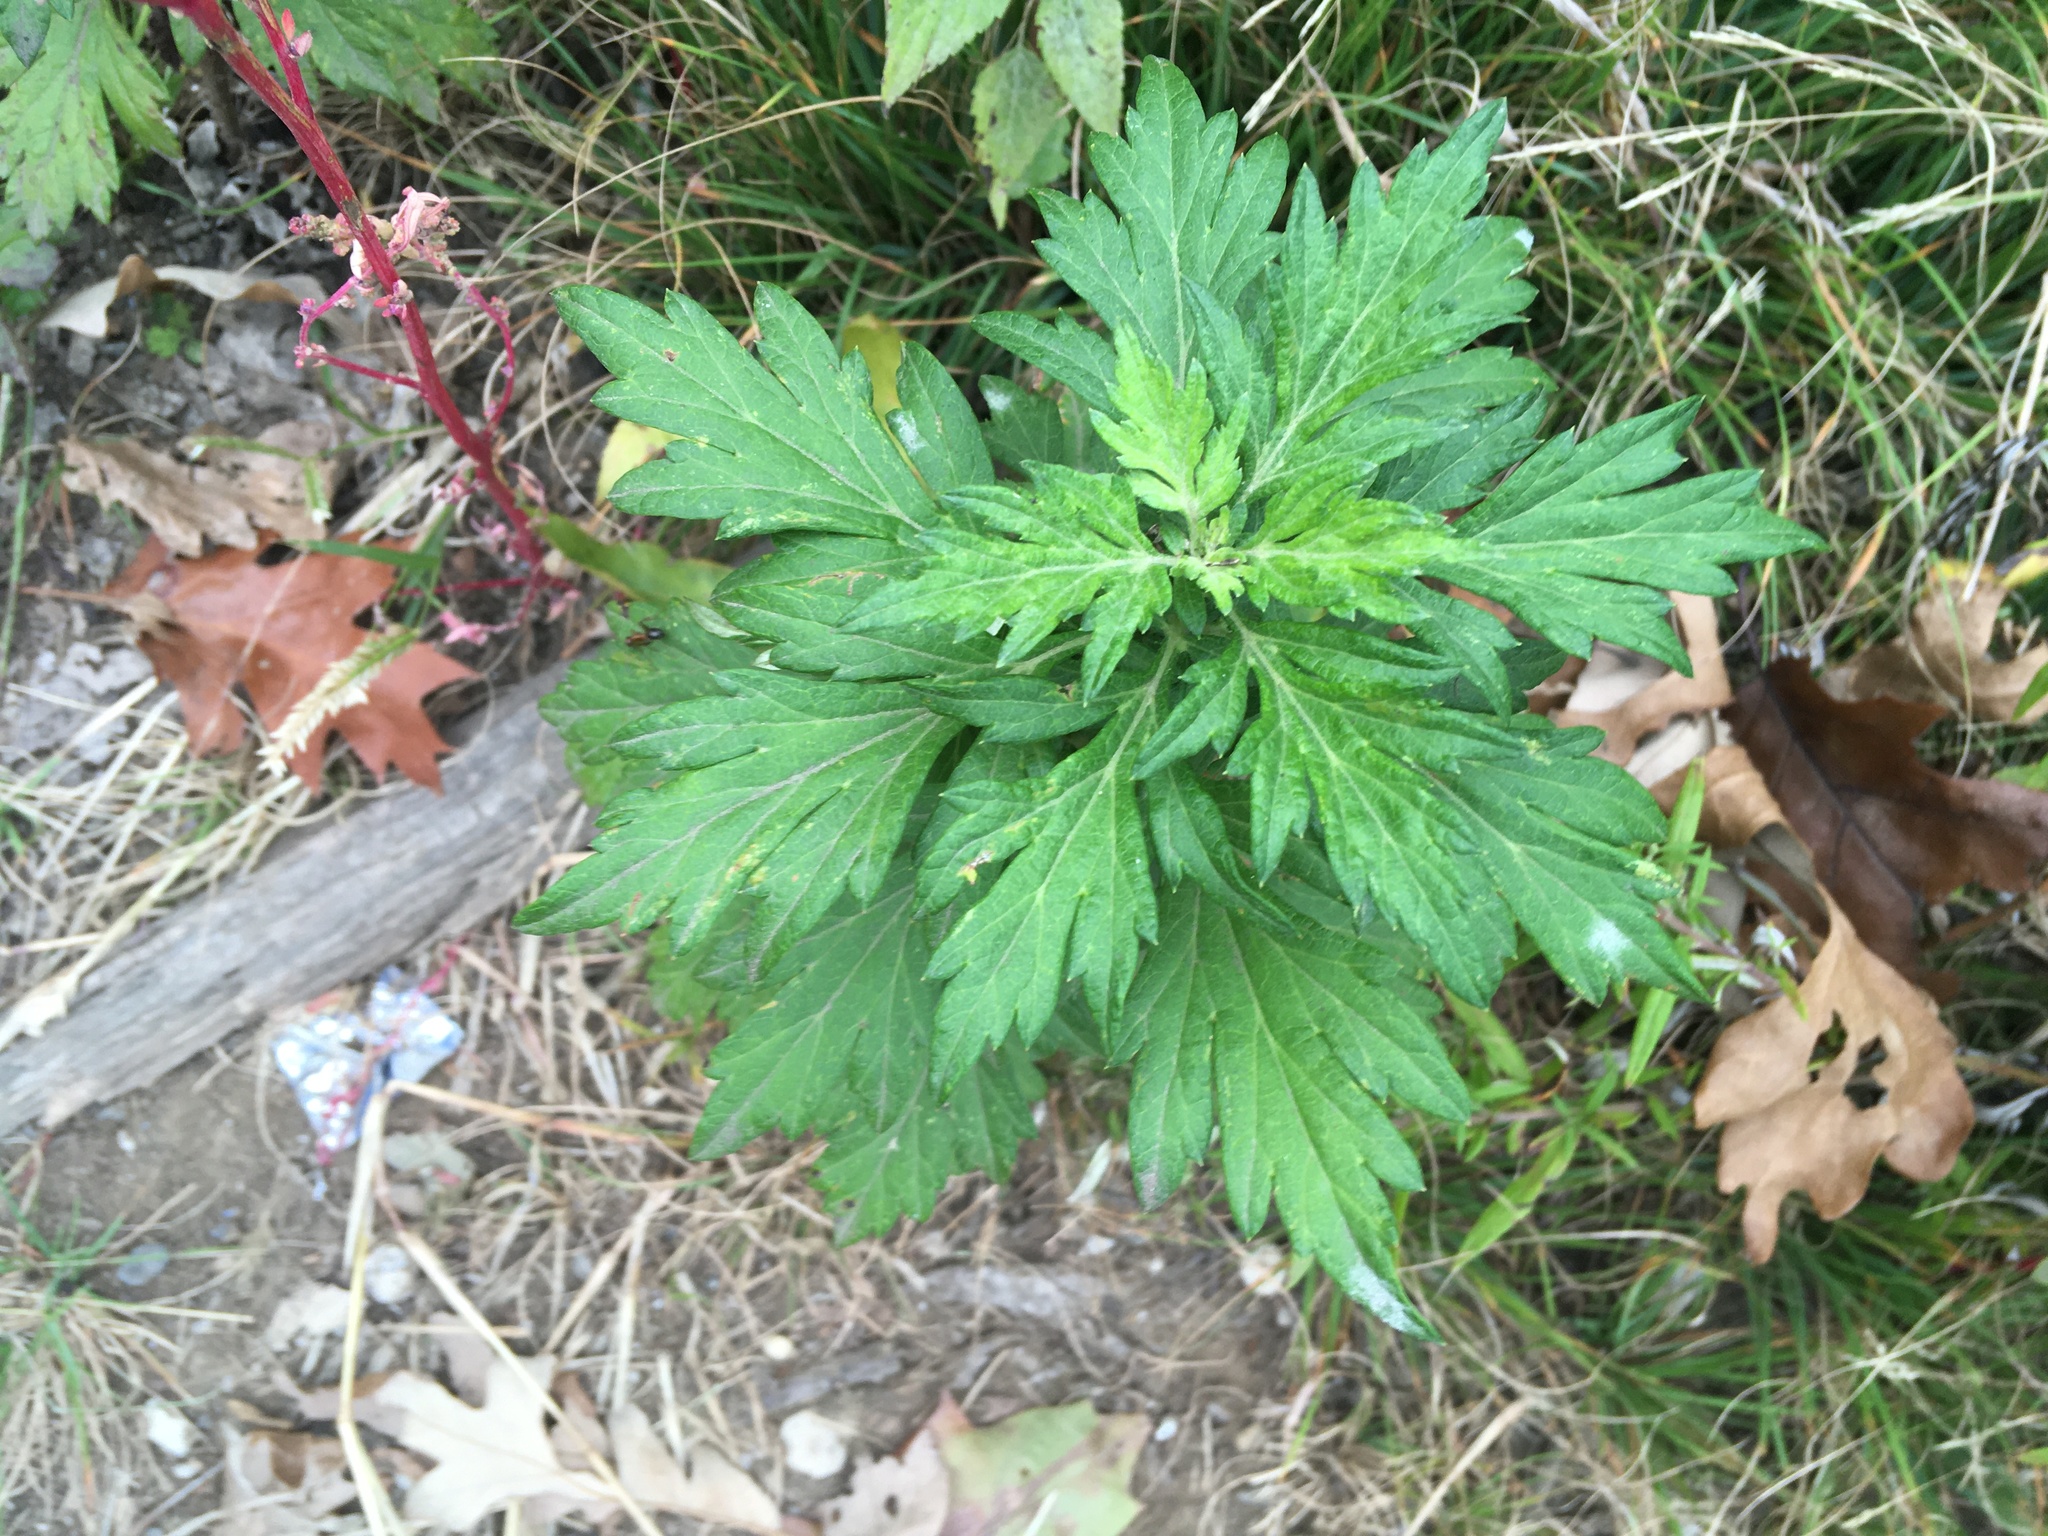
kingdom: Plantae
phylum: Tracheophyta
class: Magnoliopsida
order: Asterales
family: Asteraceae
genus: Artemisia
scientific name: Artemisia vulgaris
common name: Mugwort
